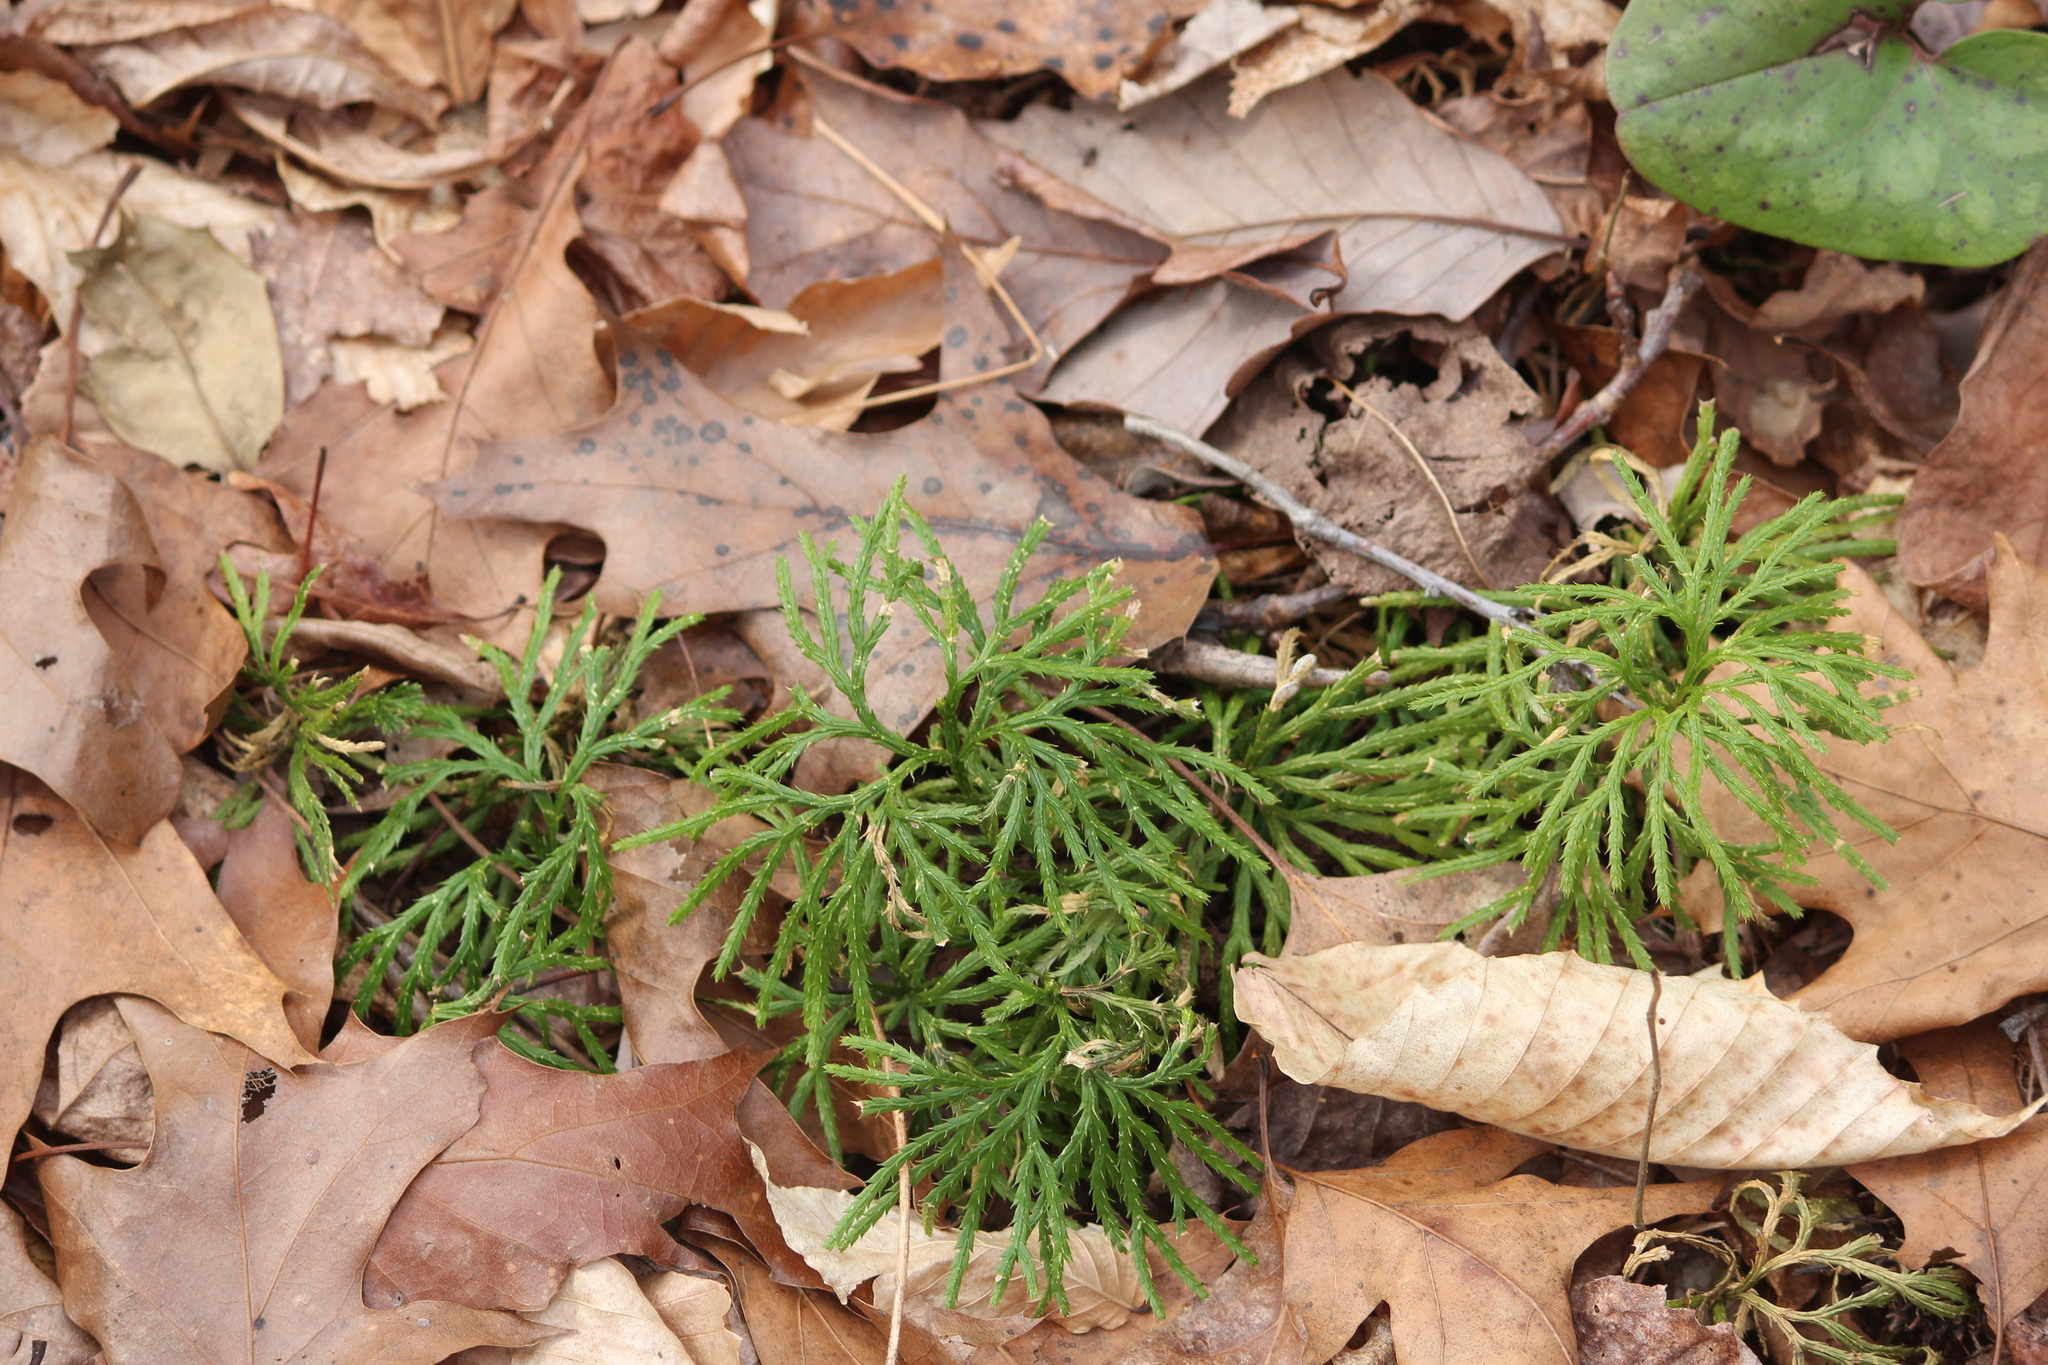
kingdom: Plantae
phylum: Tracheophyta
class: Lycopodiopsida
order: Lycopodiales
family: Lycopodiaceae
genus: Diphasiastrum
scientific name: Diphasiastrum digitatum
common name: Southern running-pine
